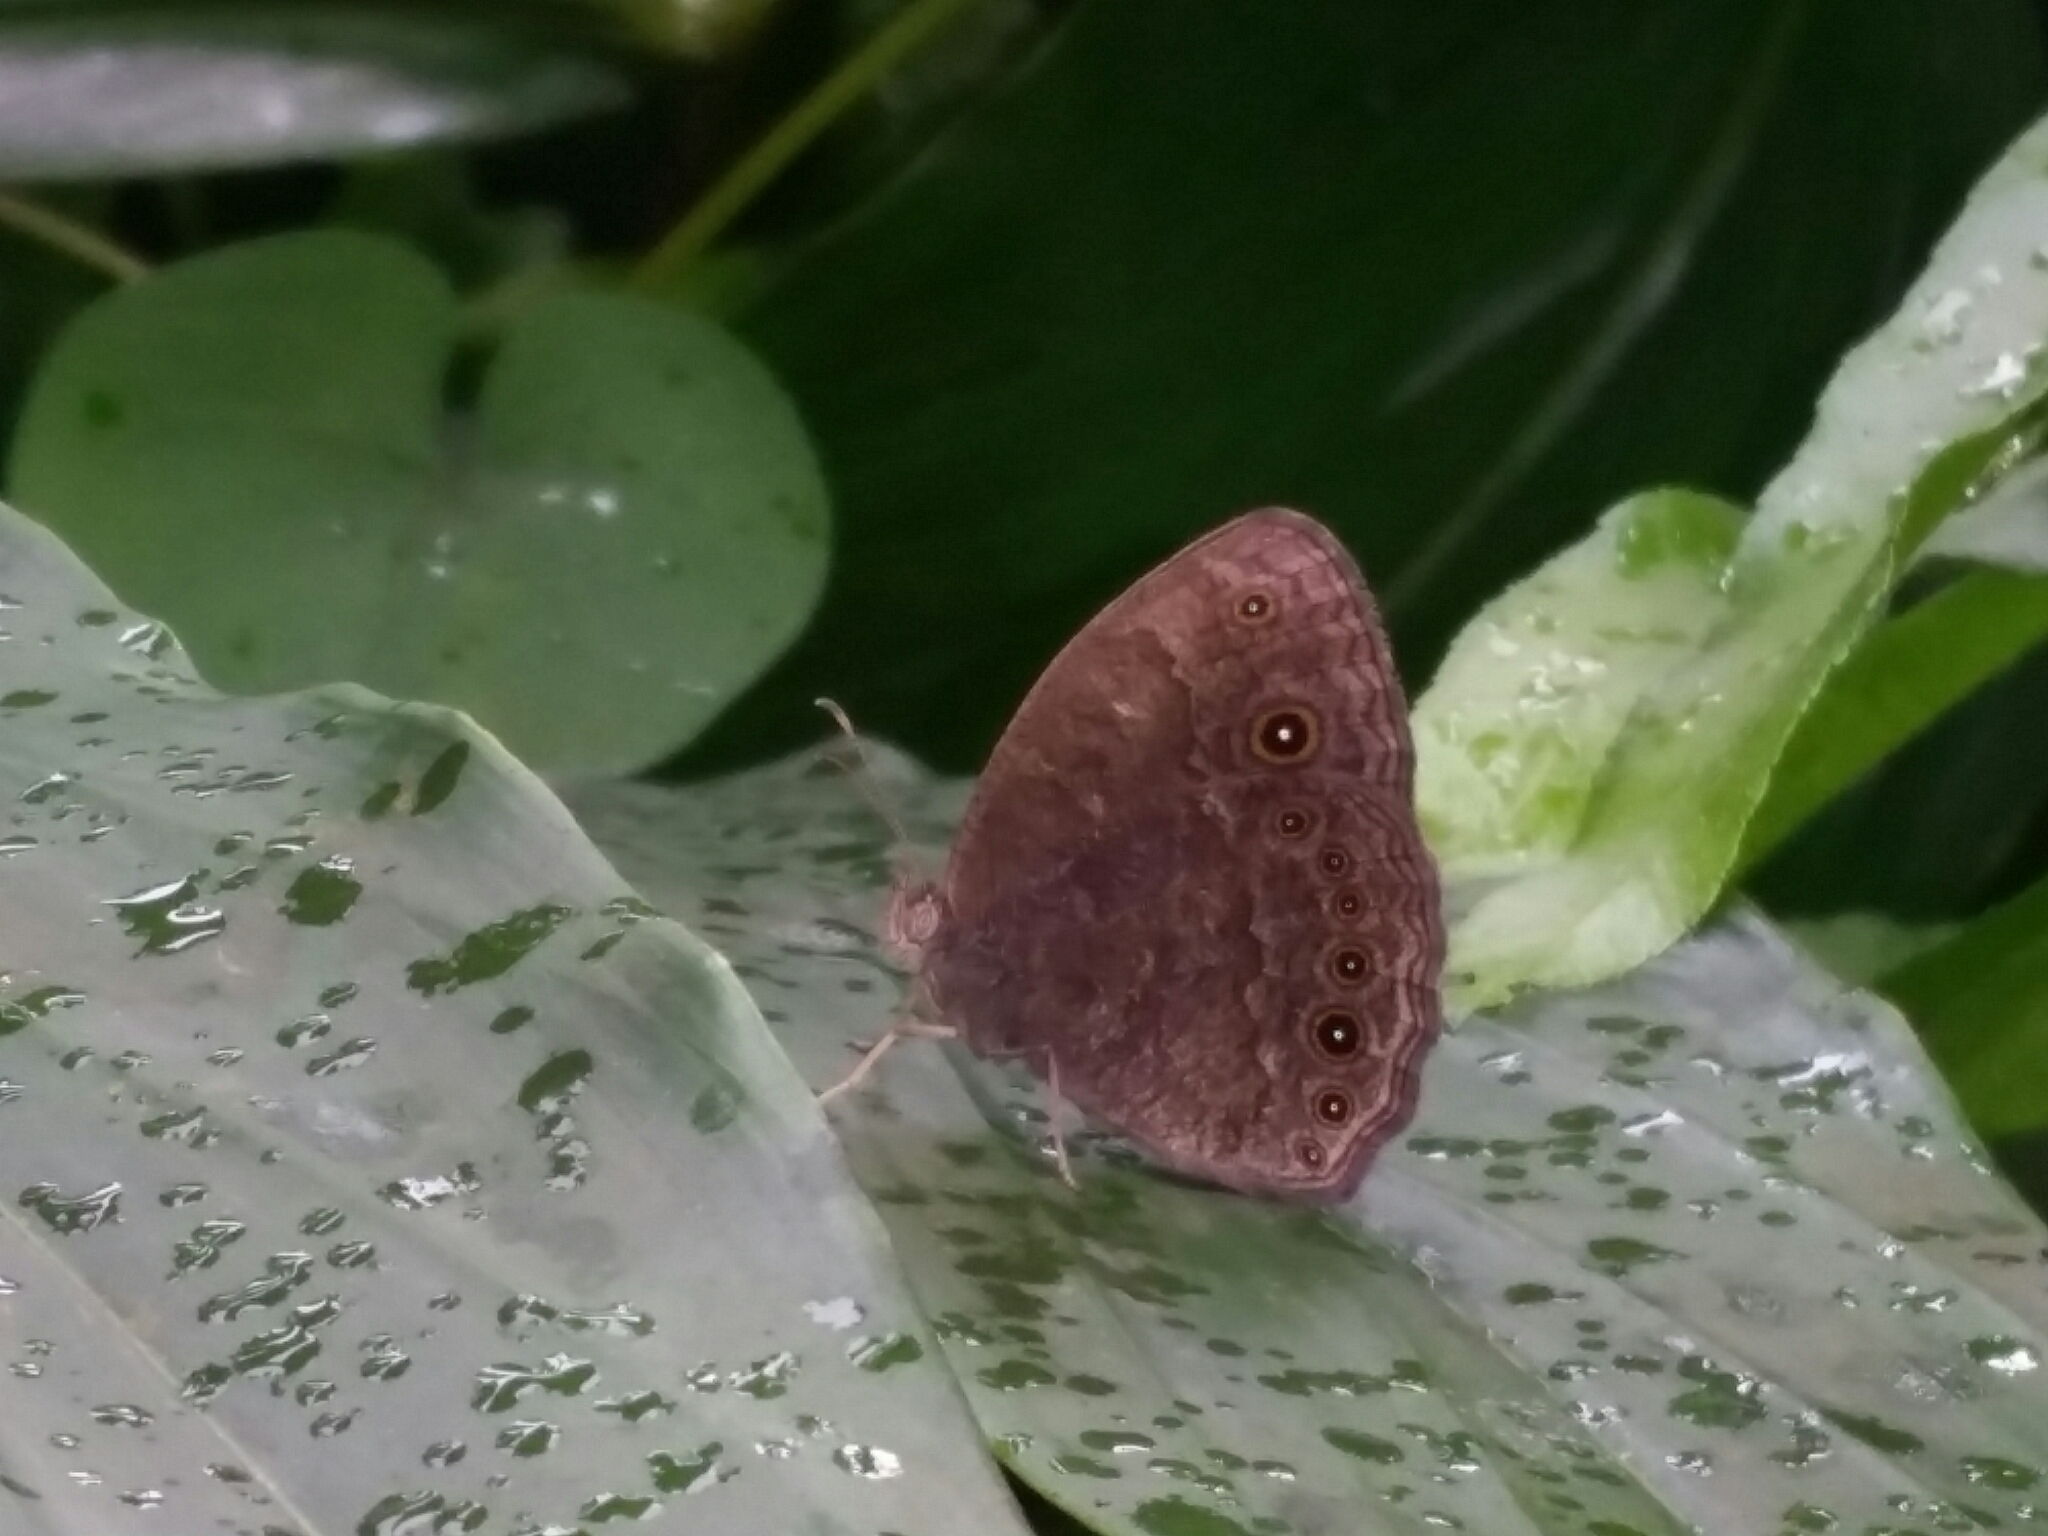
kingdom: Animalia
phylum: Arthropoda
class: Insecta
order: Lepidoptera
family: Nymphalidae
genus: Mycalesis
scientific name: Mycalesis vulgaris
